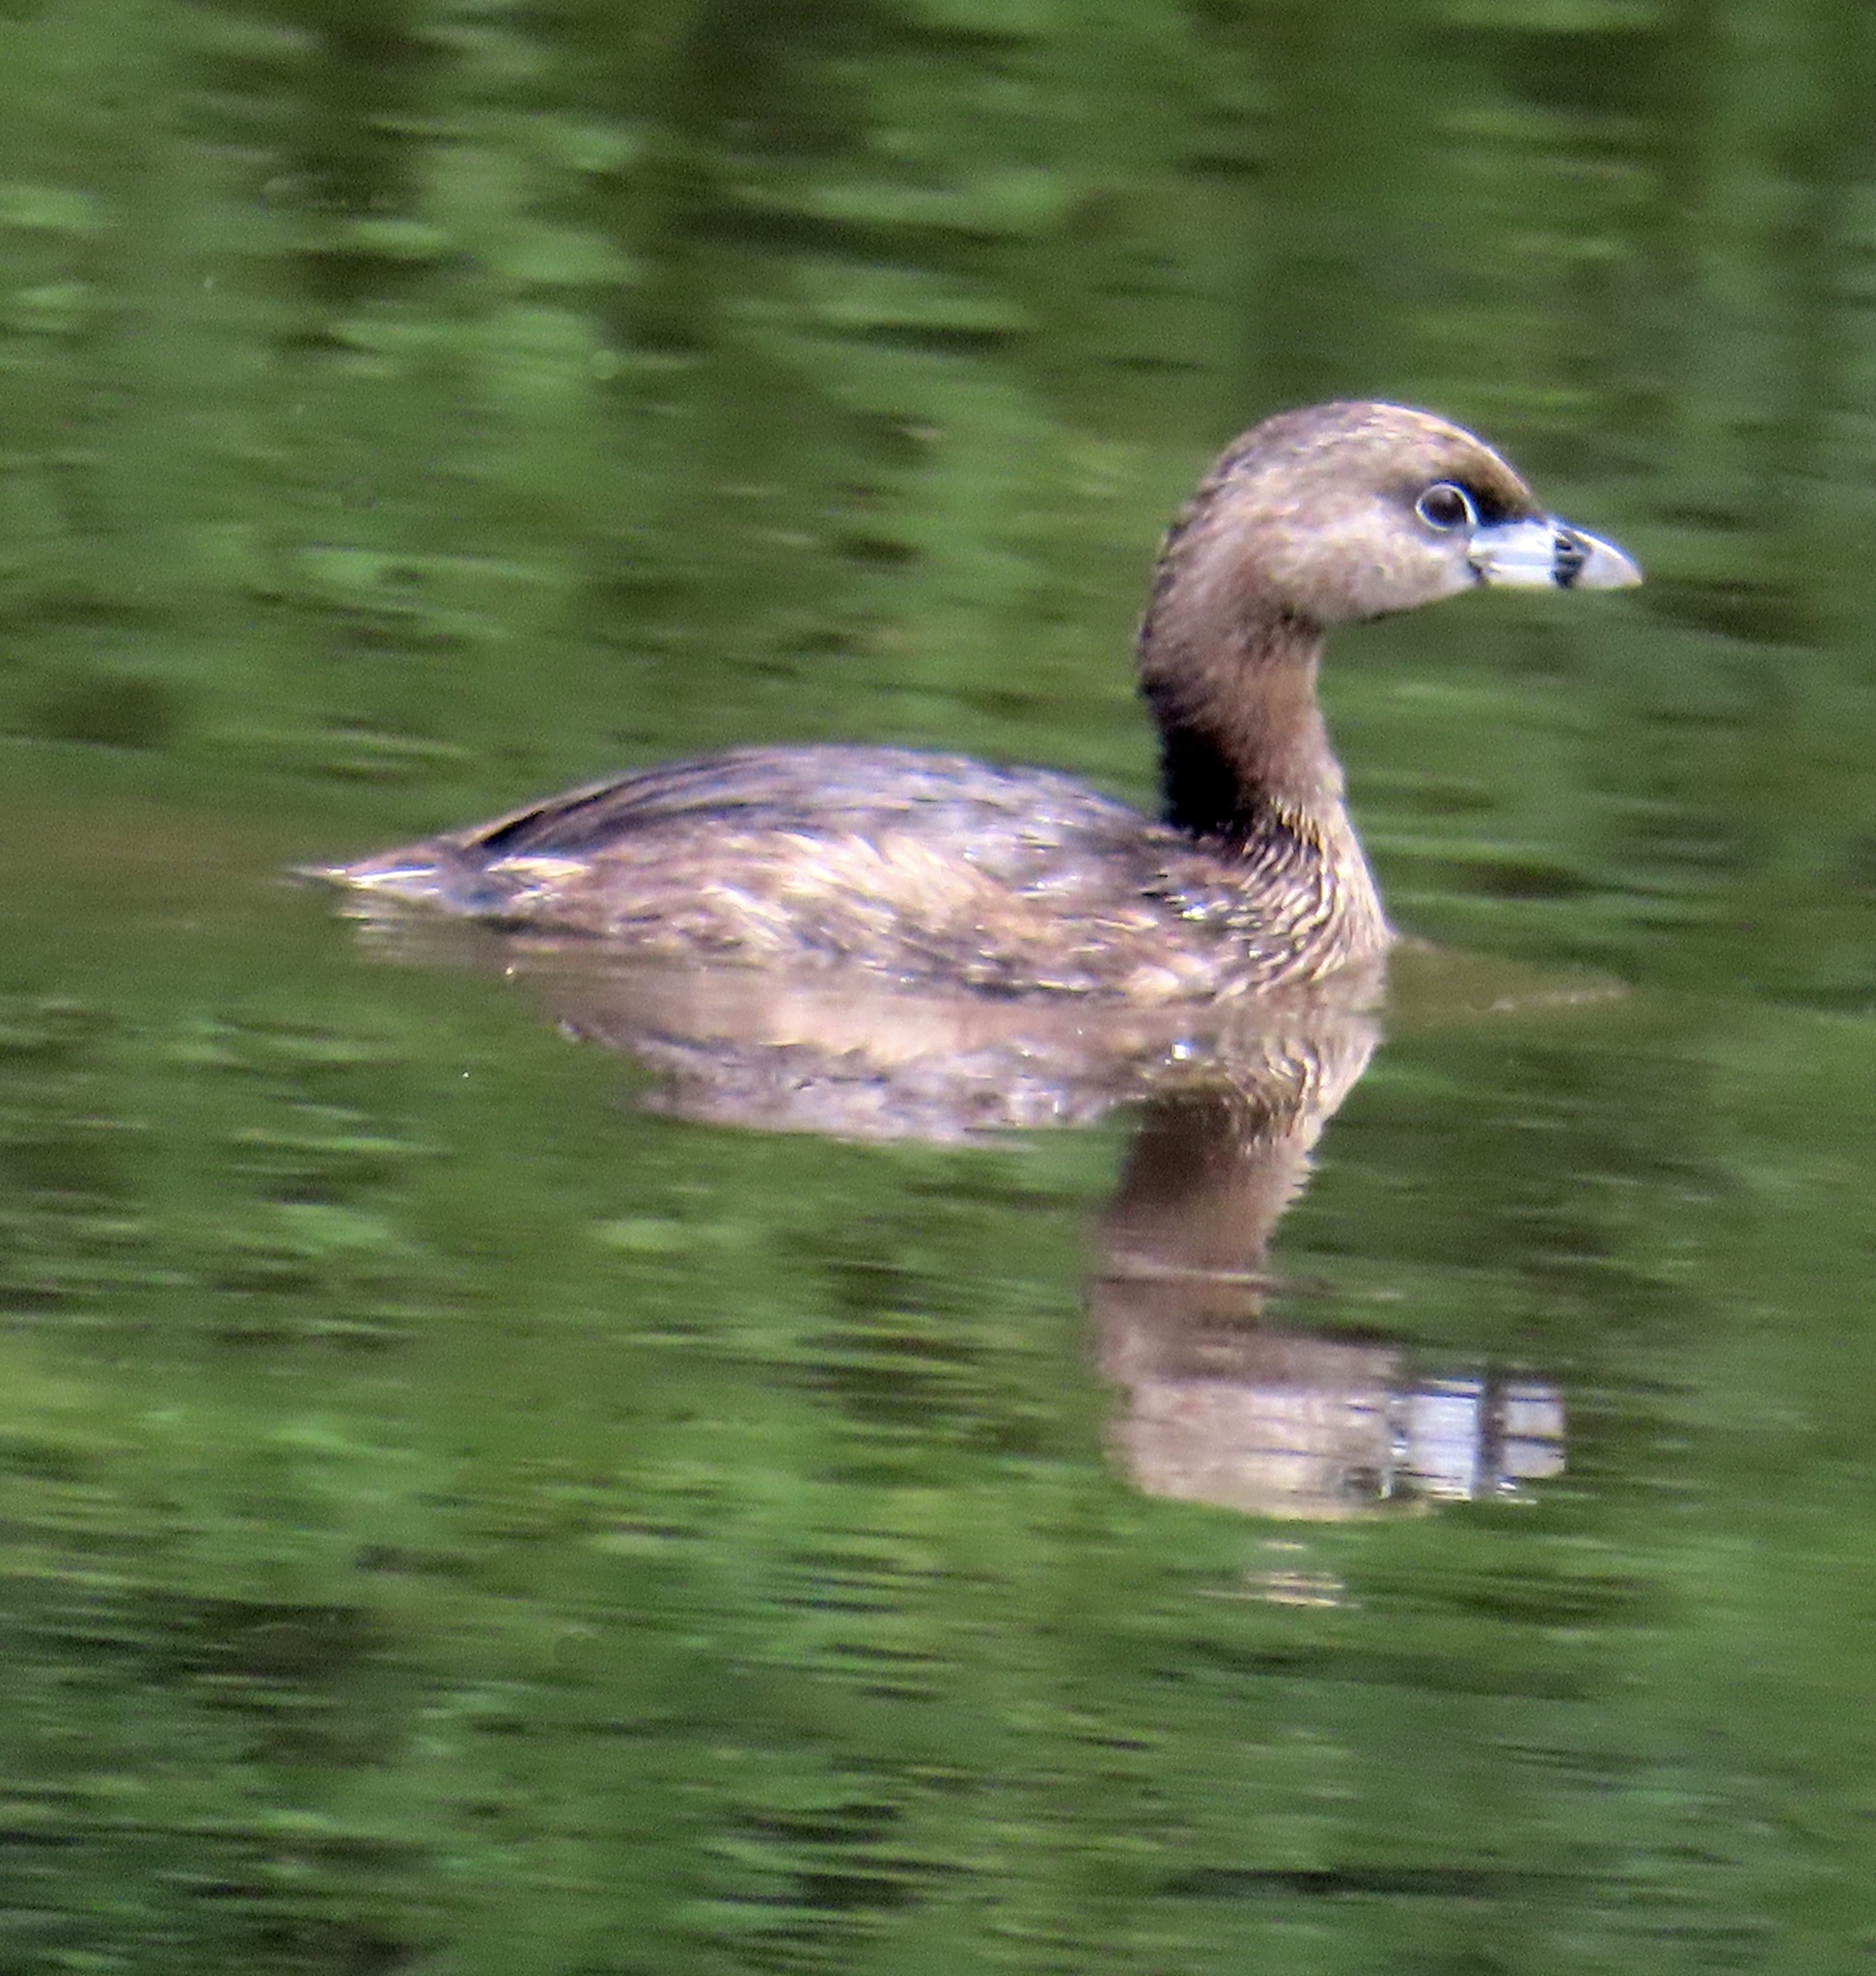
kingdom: Animalia
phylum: Chordata
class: Aves
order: Podicipediformes
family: Podicipedidae
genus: Podilymbus
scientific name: Podilymbus podiceps
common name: Pied-billed grebe
